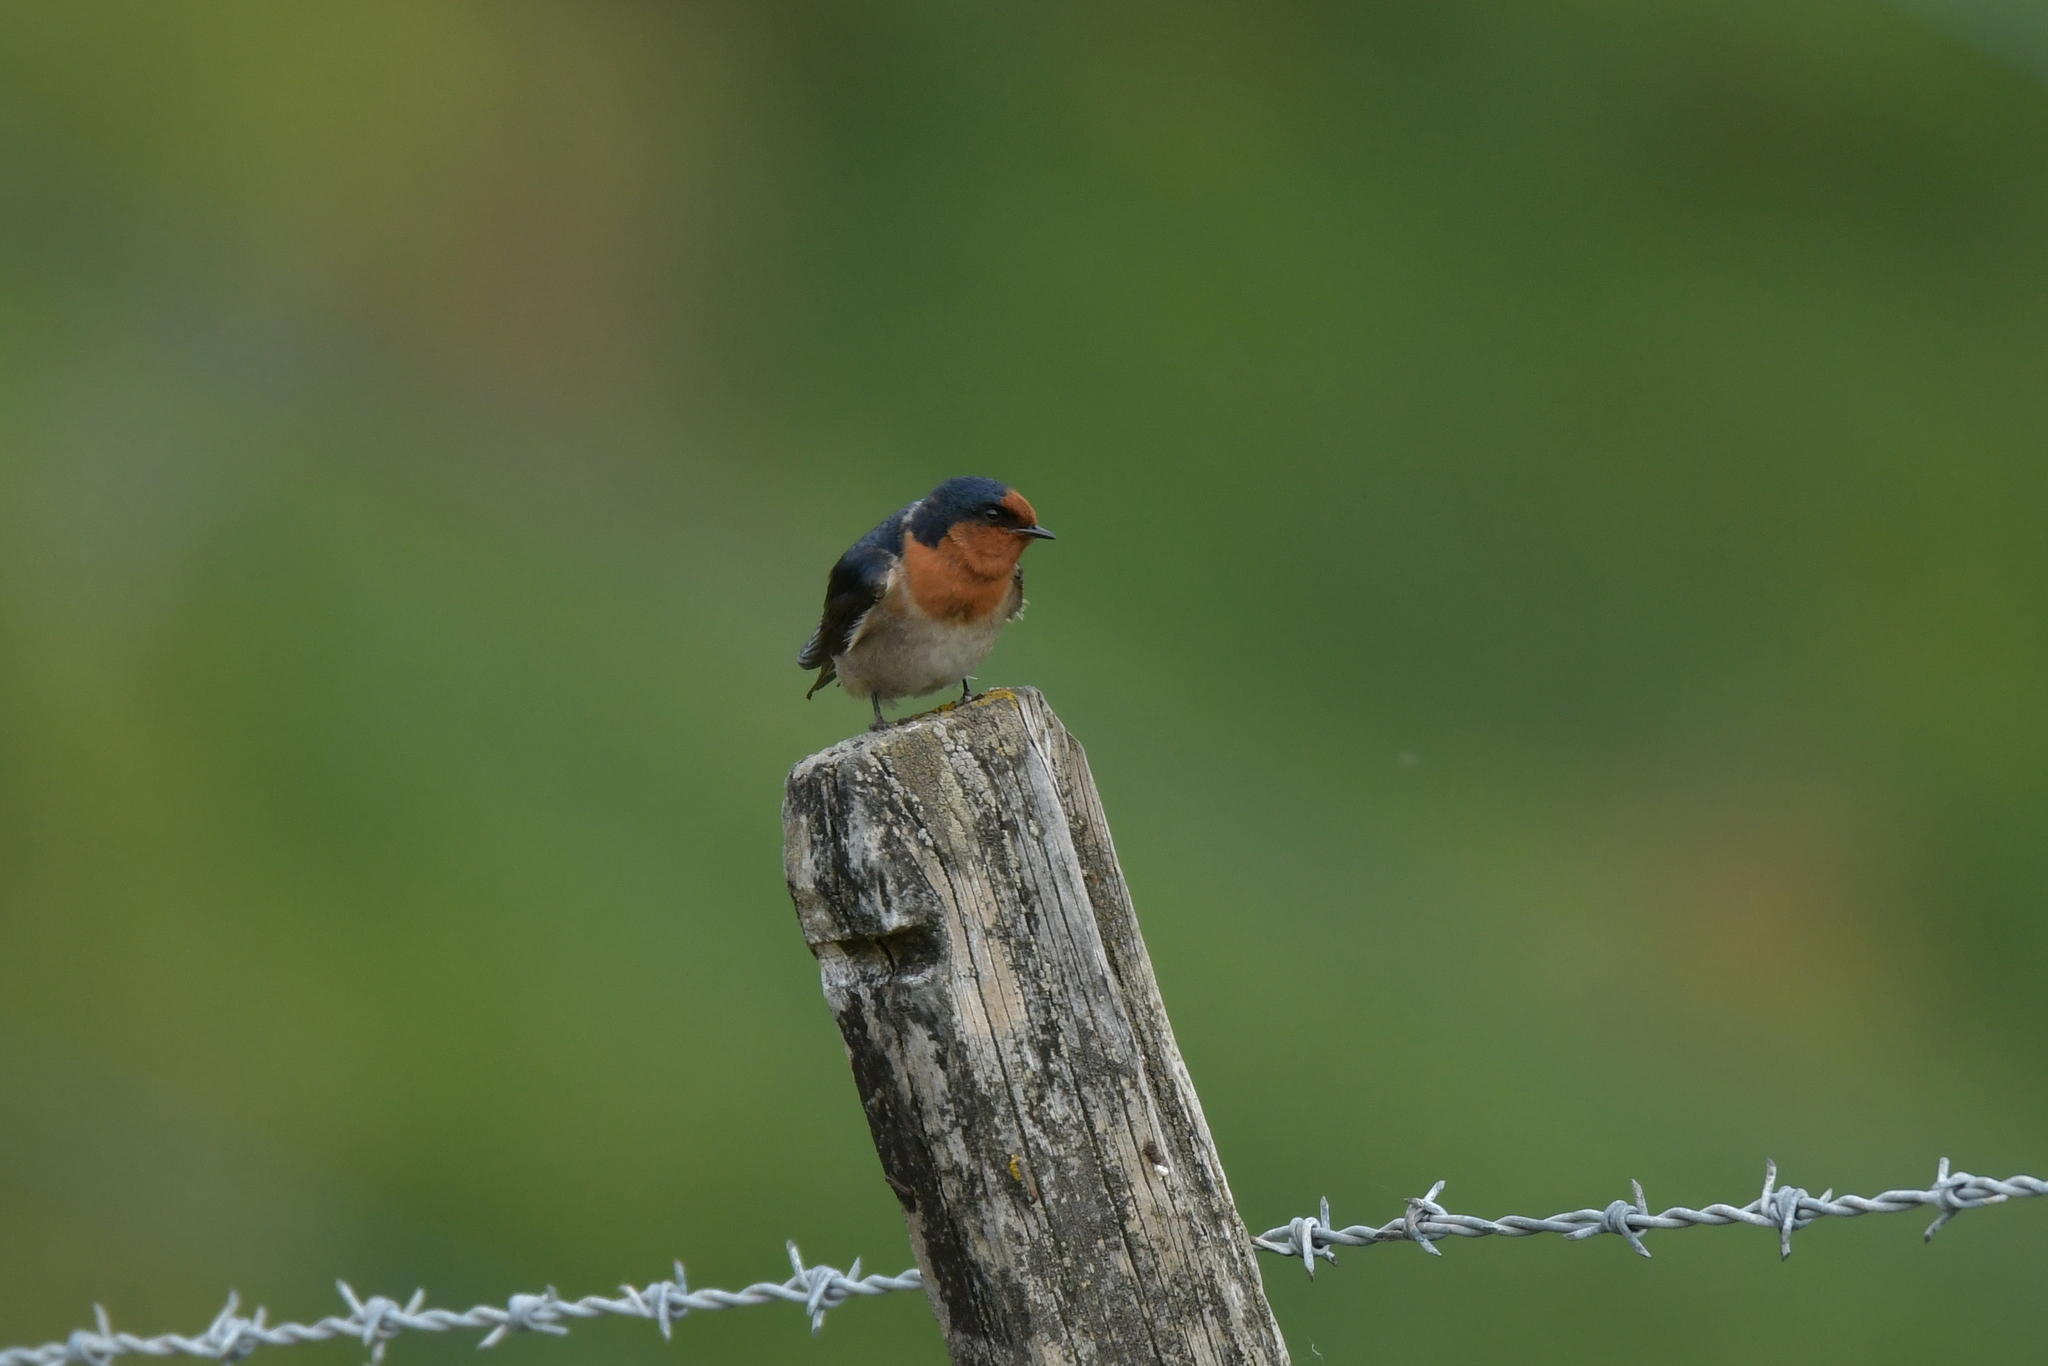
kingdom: Animalia
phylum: Chordata
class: Aves
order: Passeriformes
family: Hirundinidae
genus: Hirundo
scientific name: Hirundo neoxena
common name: Welcome swallow
